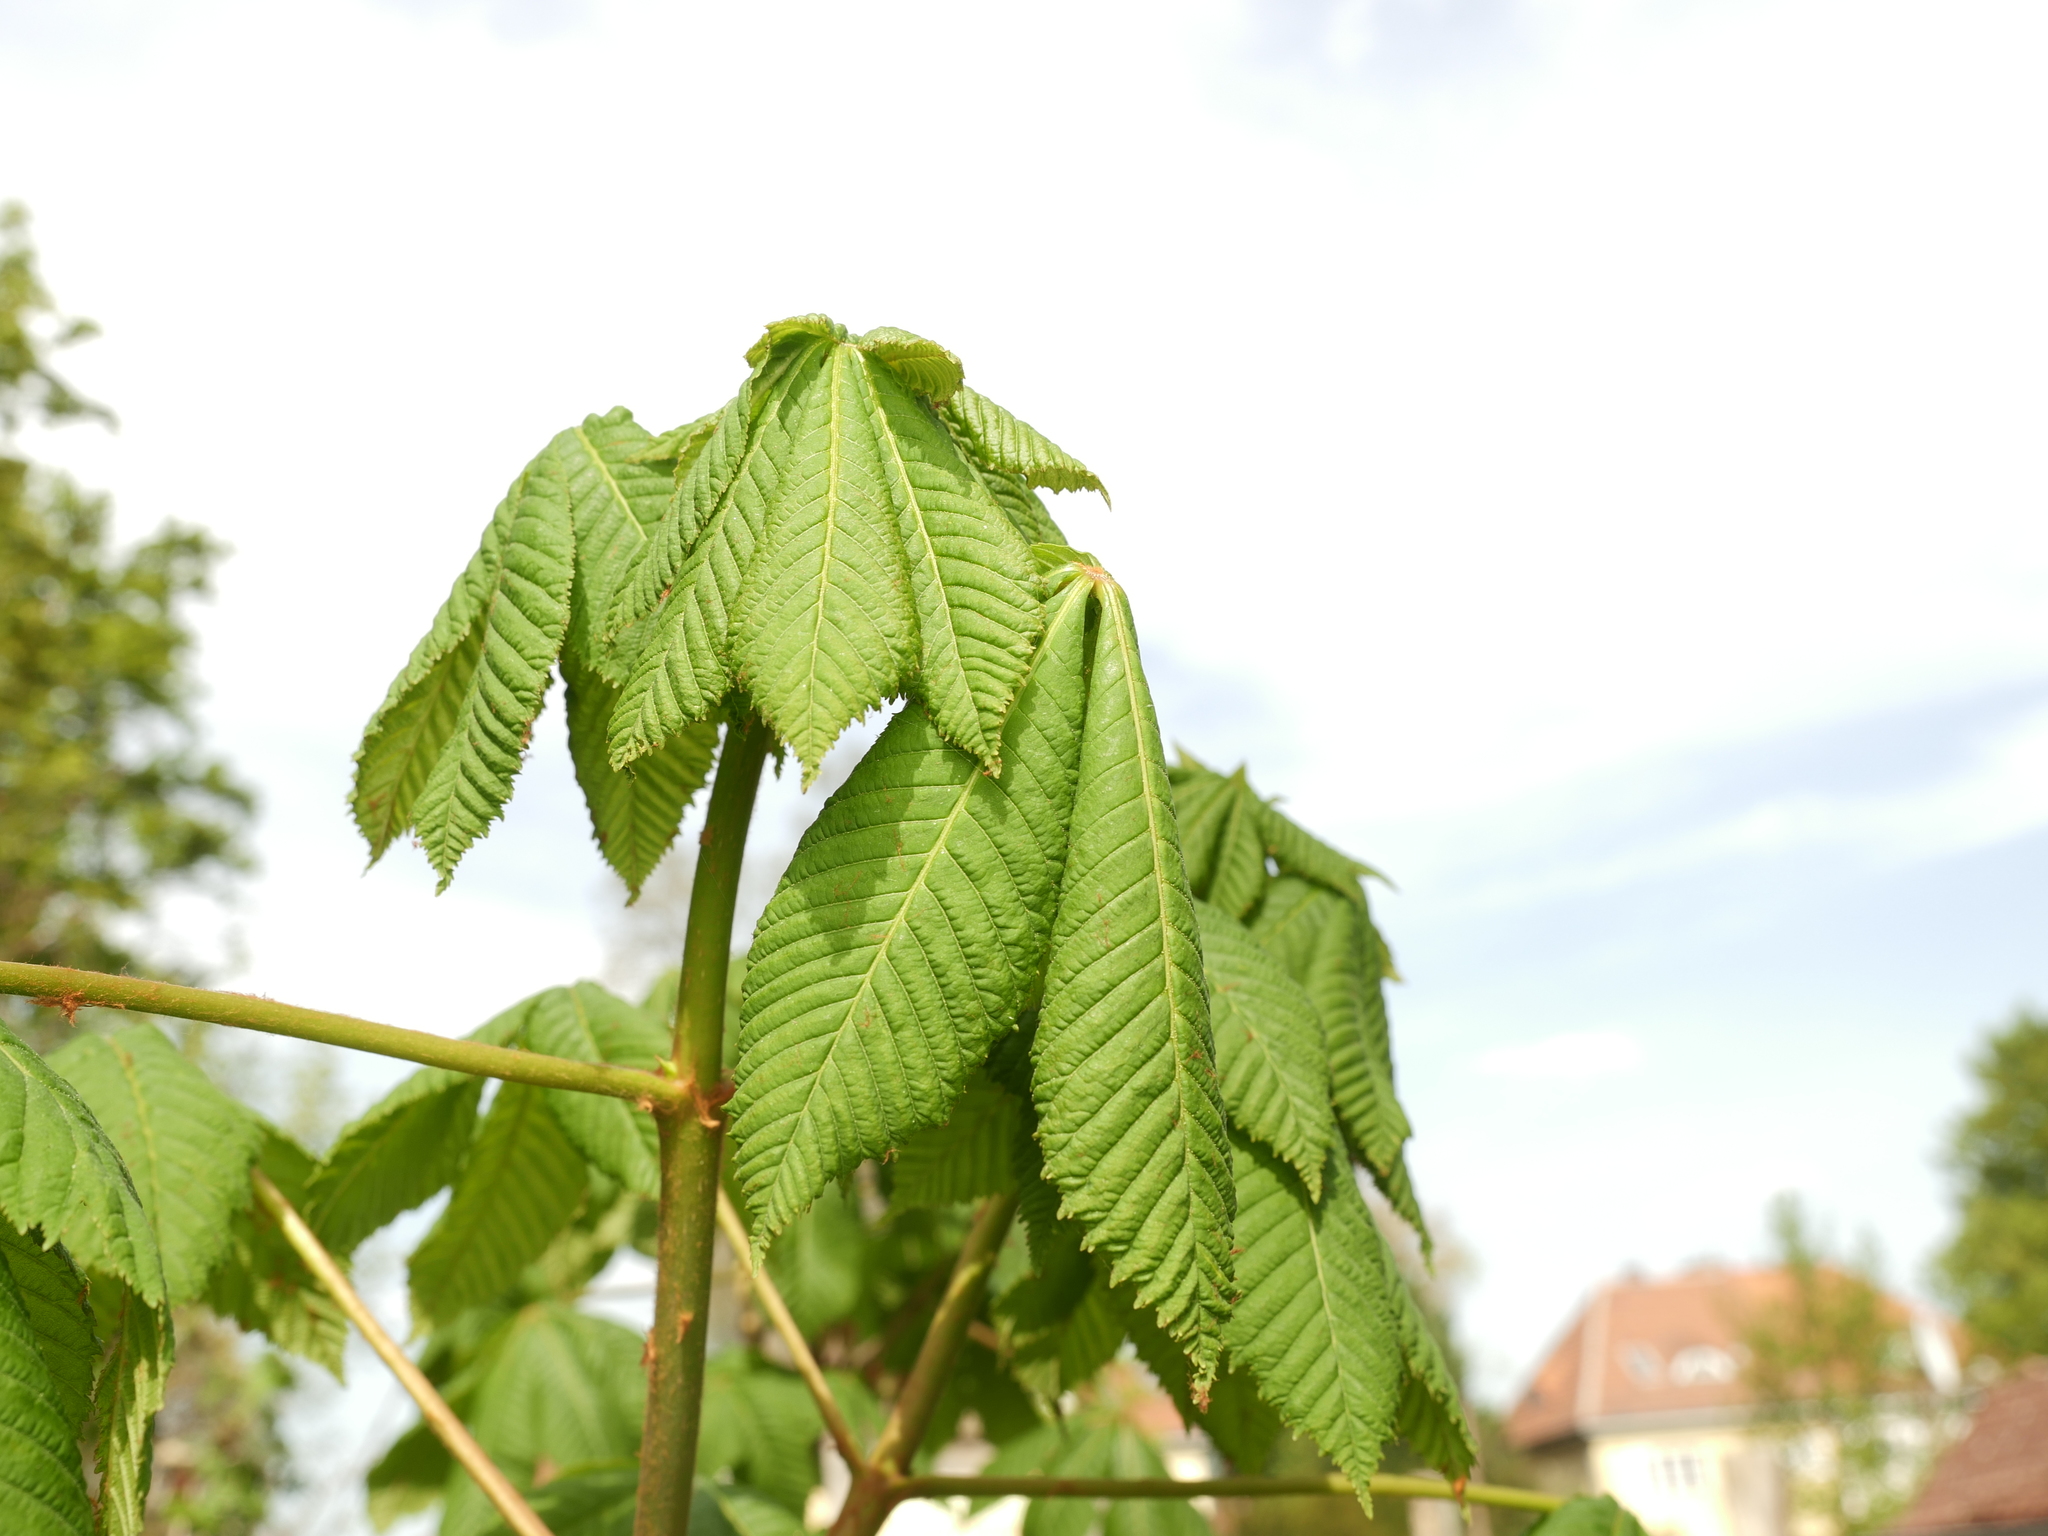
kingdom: Plantae
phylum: Tracheophyta
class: Magnoliopsida
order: Sapindales
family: Sapindaceae
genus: Aesculus
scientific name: Aesculus hippocastanum
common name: Horse-chestnut
